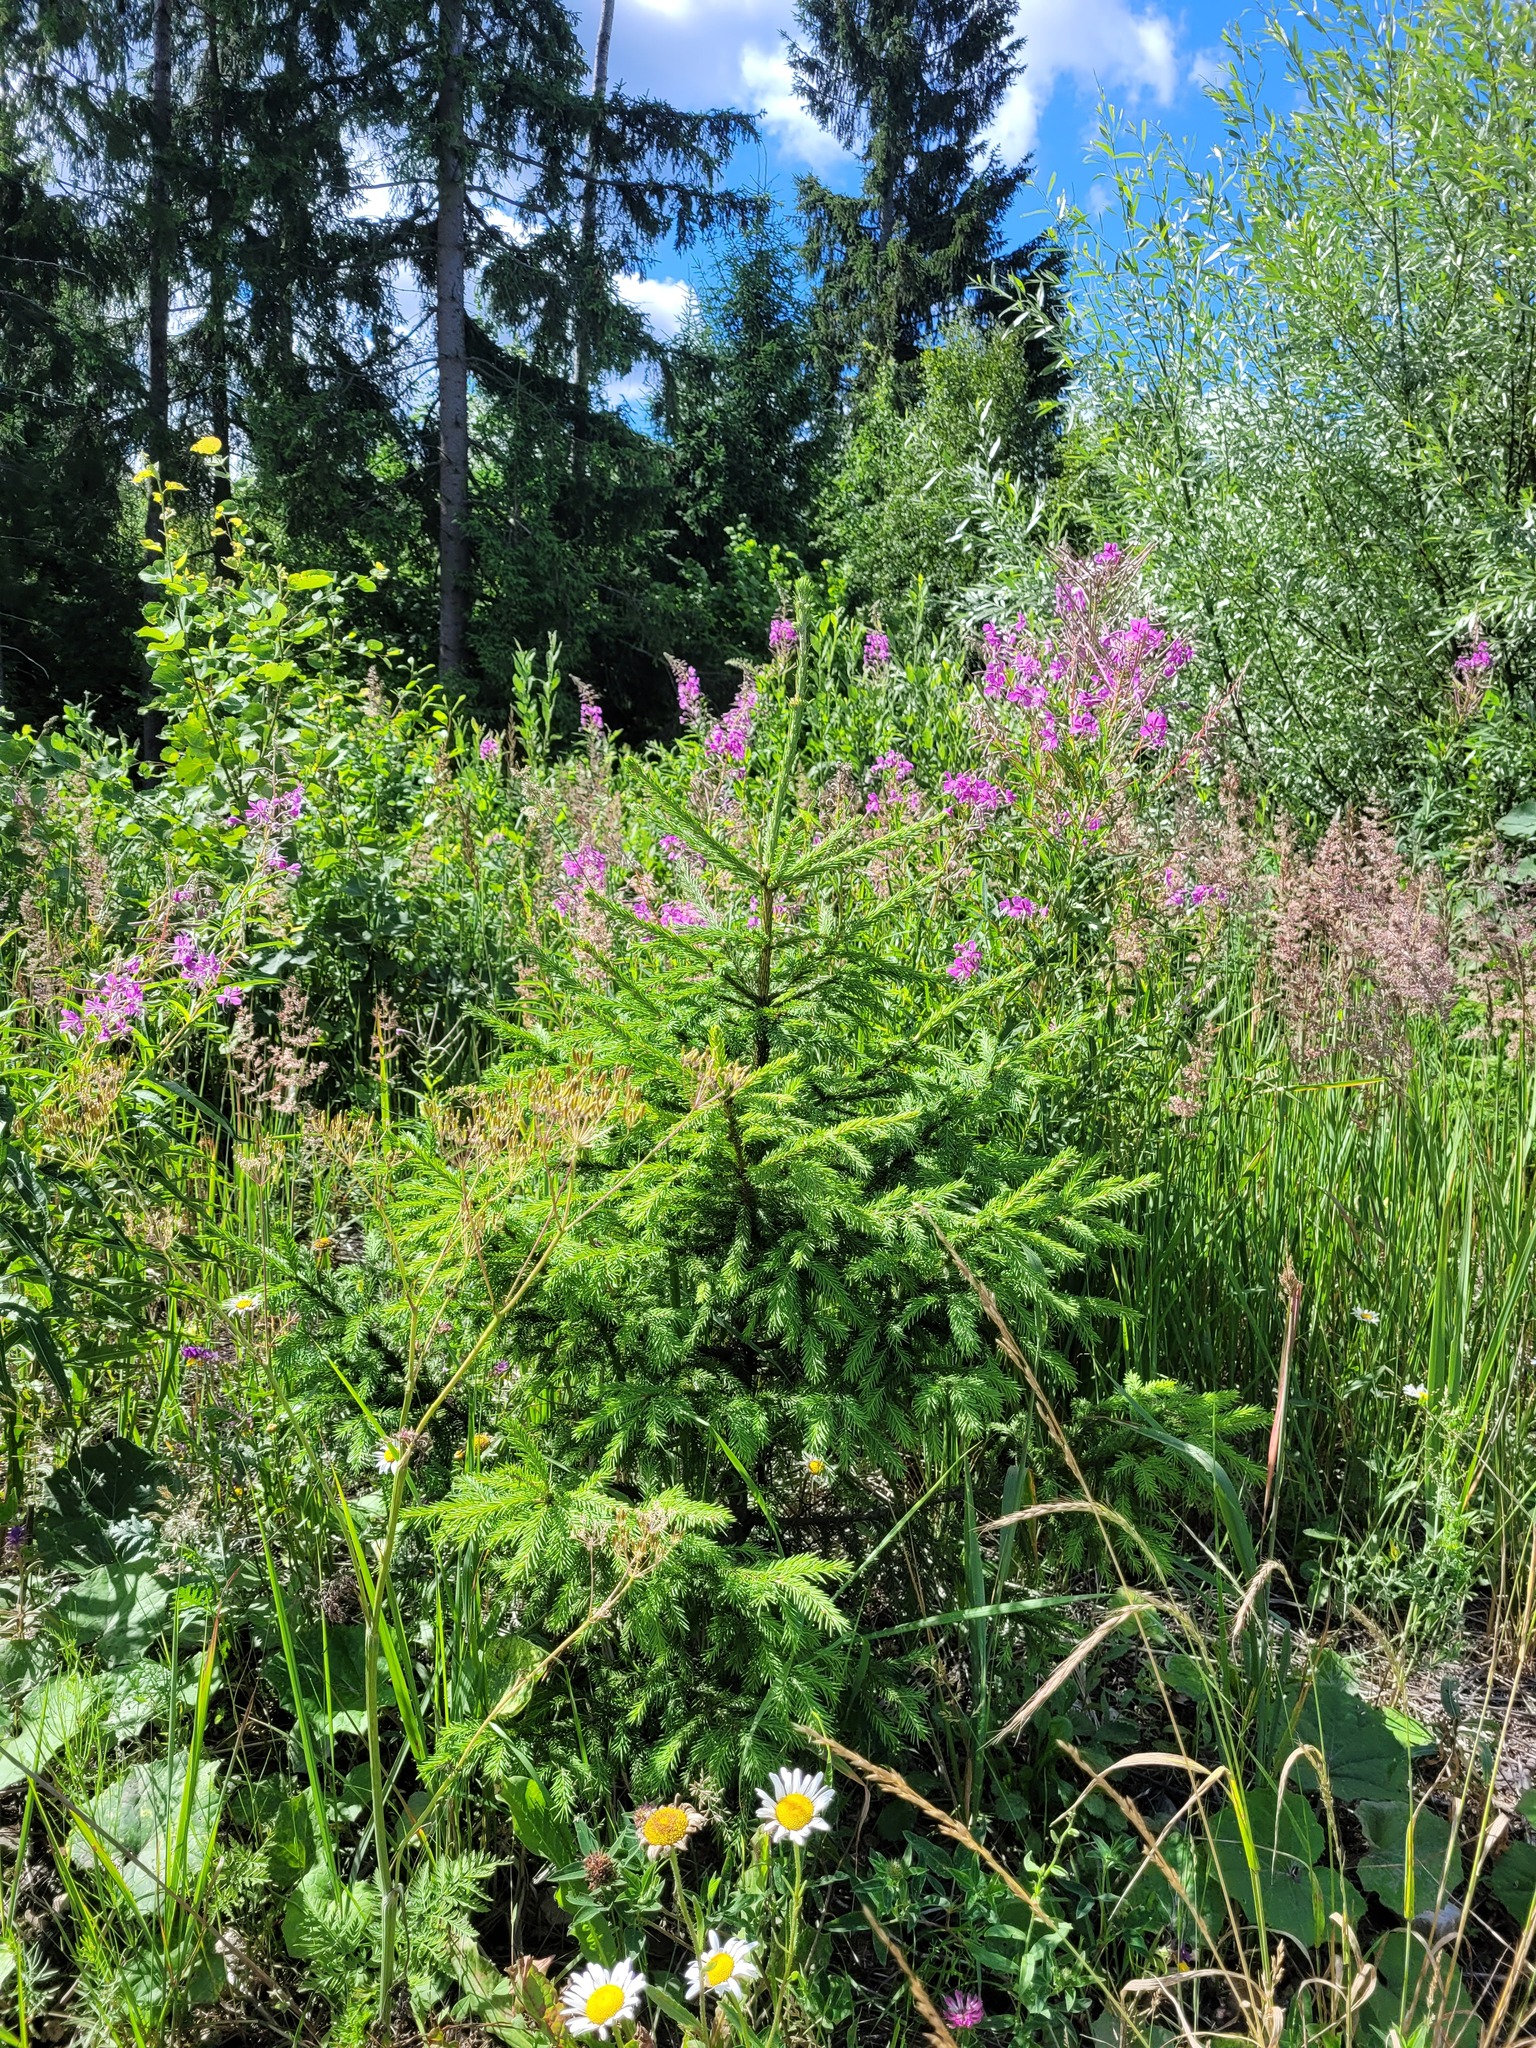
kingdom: Plantae
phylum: Tracheophyta
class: Pinopsida
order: Pinales
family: Pinaceae
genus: Picea
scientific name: Picea abies
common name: Norway spruce
